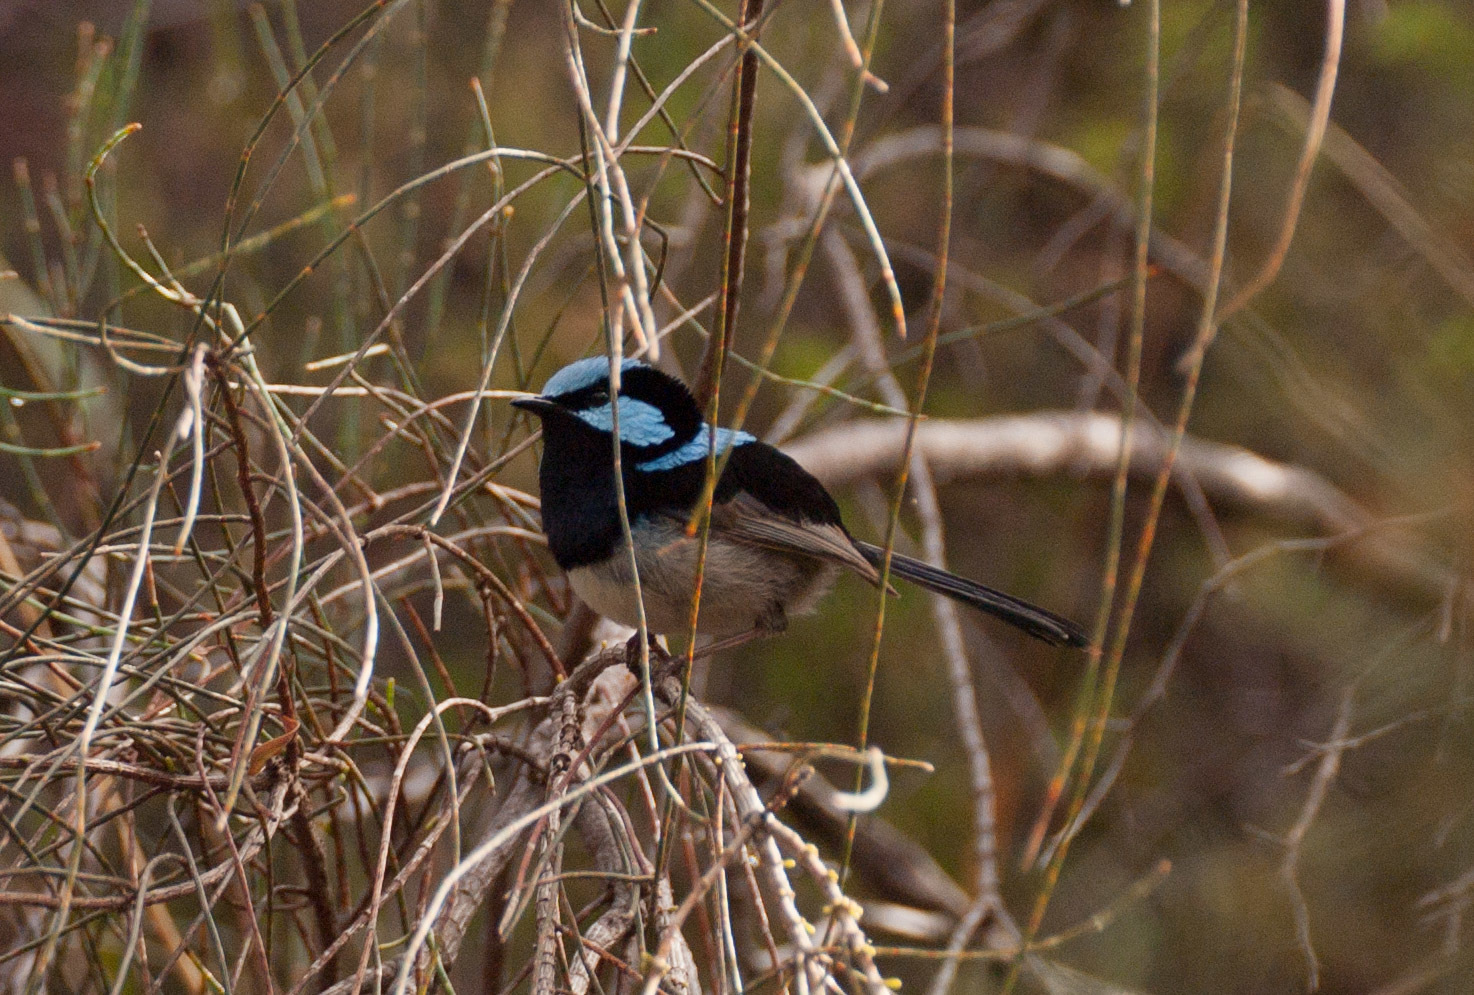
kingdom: Animalia
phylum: Chordata
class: Aves
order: Passeriformes
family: Maluridae
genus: Malurus
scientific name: Malurus cyaneus
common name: Superb fairywren
